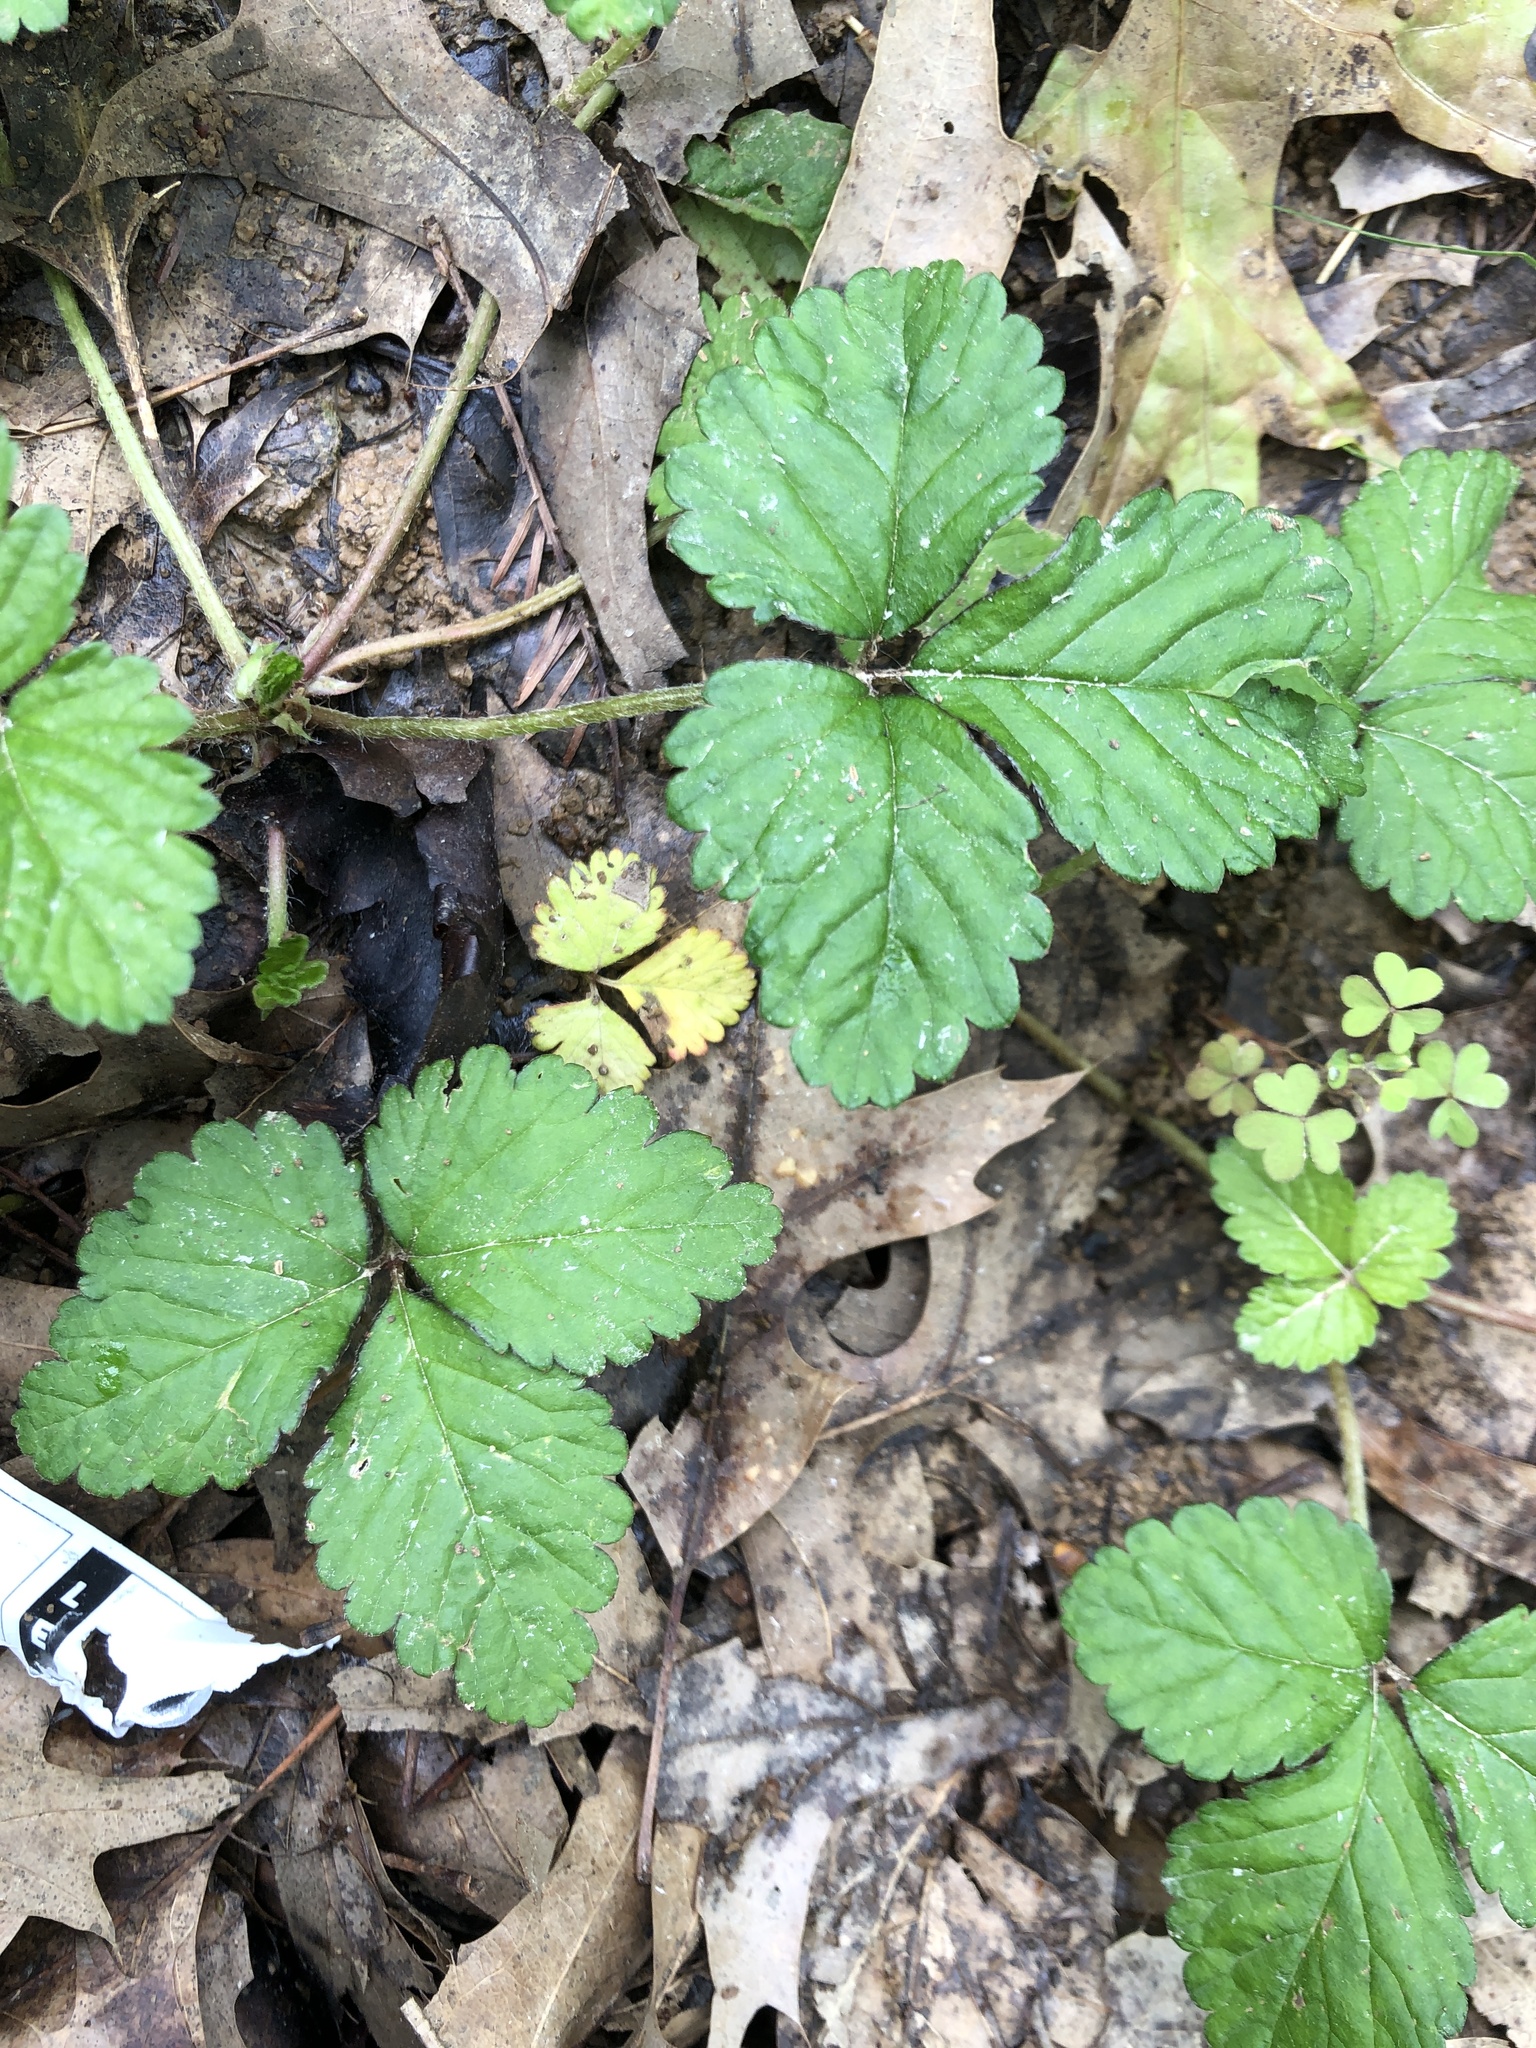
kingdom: Plantae
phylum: Tracheophyta
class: Magnoliopsida
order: Rosales
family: Rosaceae
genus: Potentilla
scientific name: Potentilla indica
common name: Yellow-flowered strawberry
